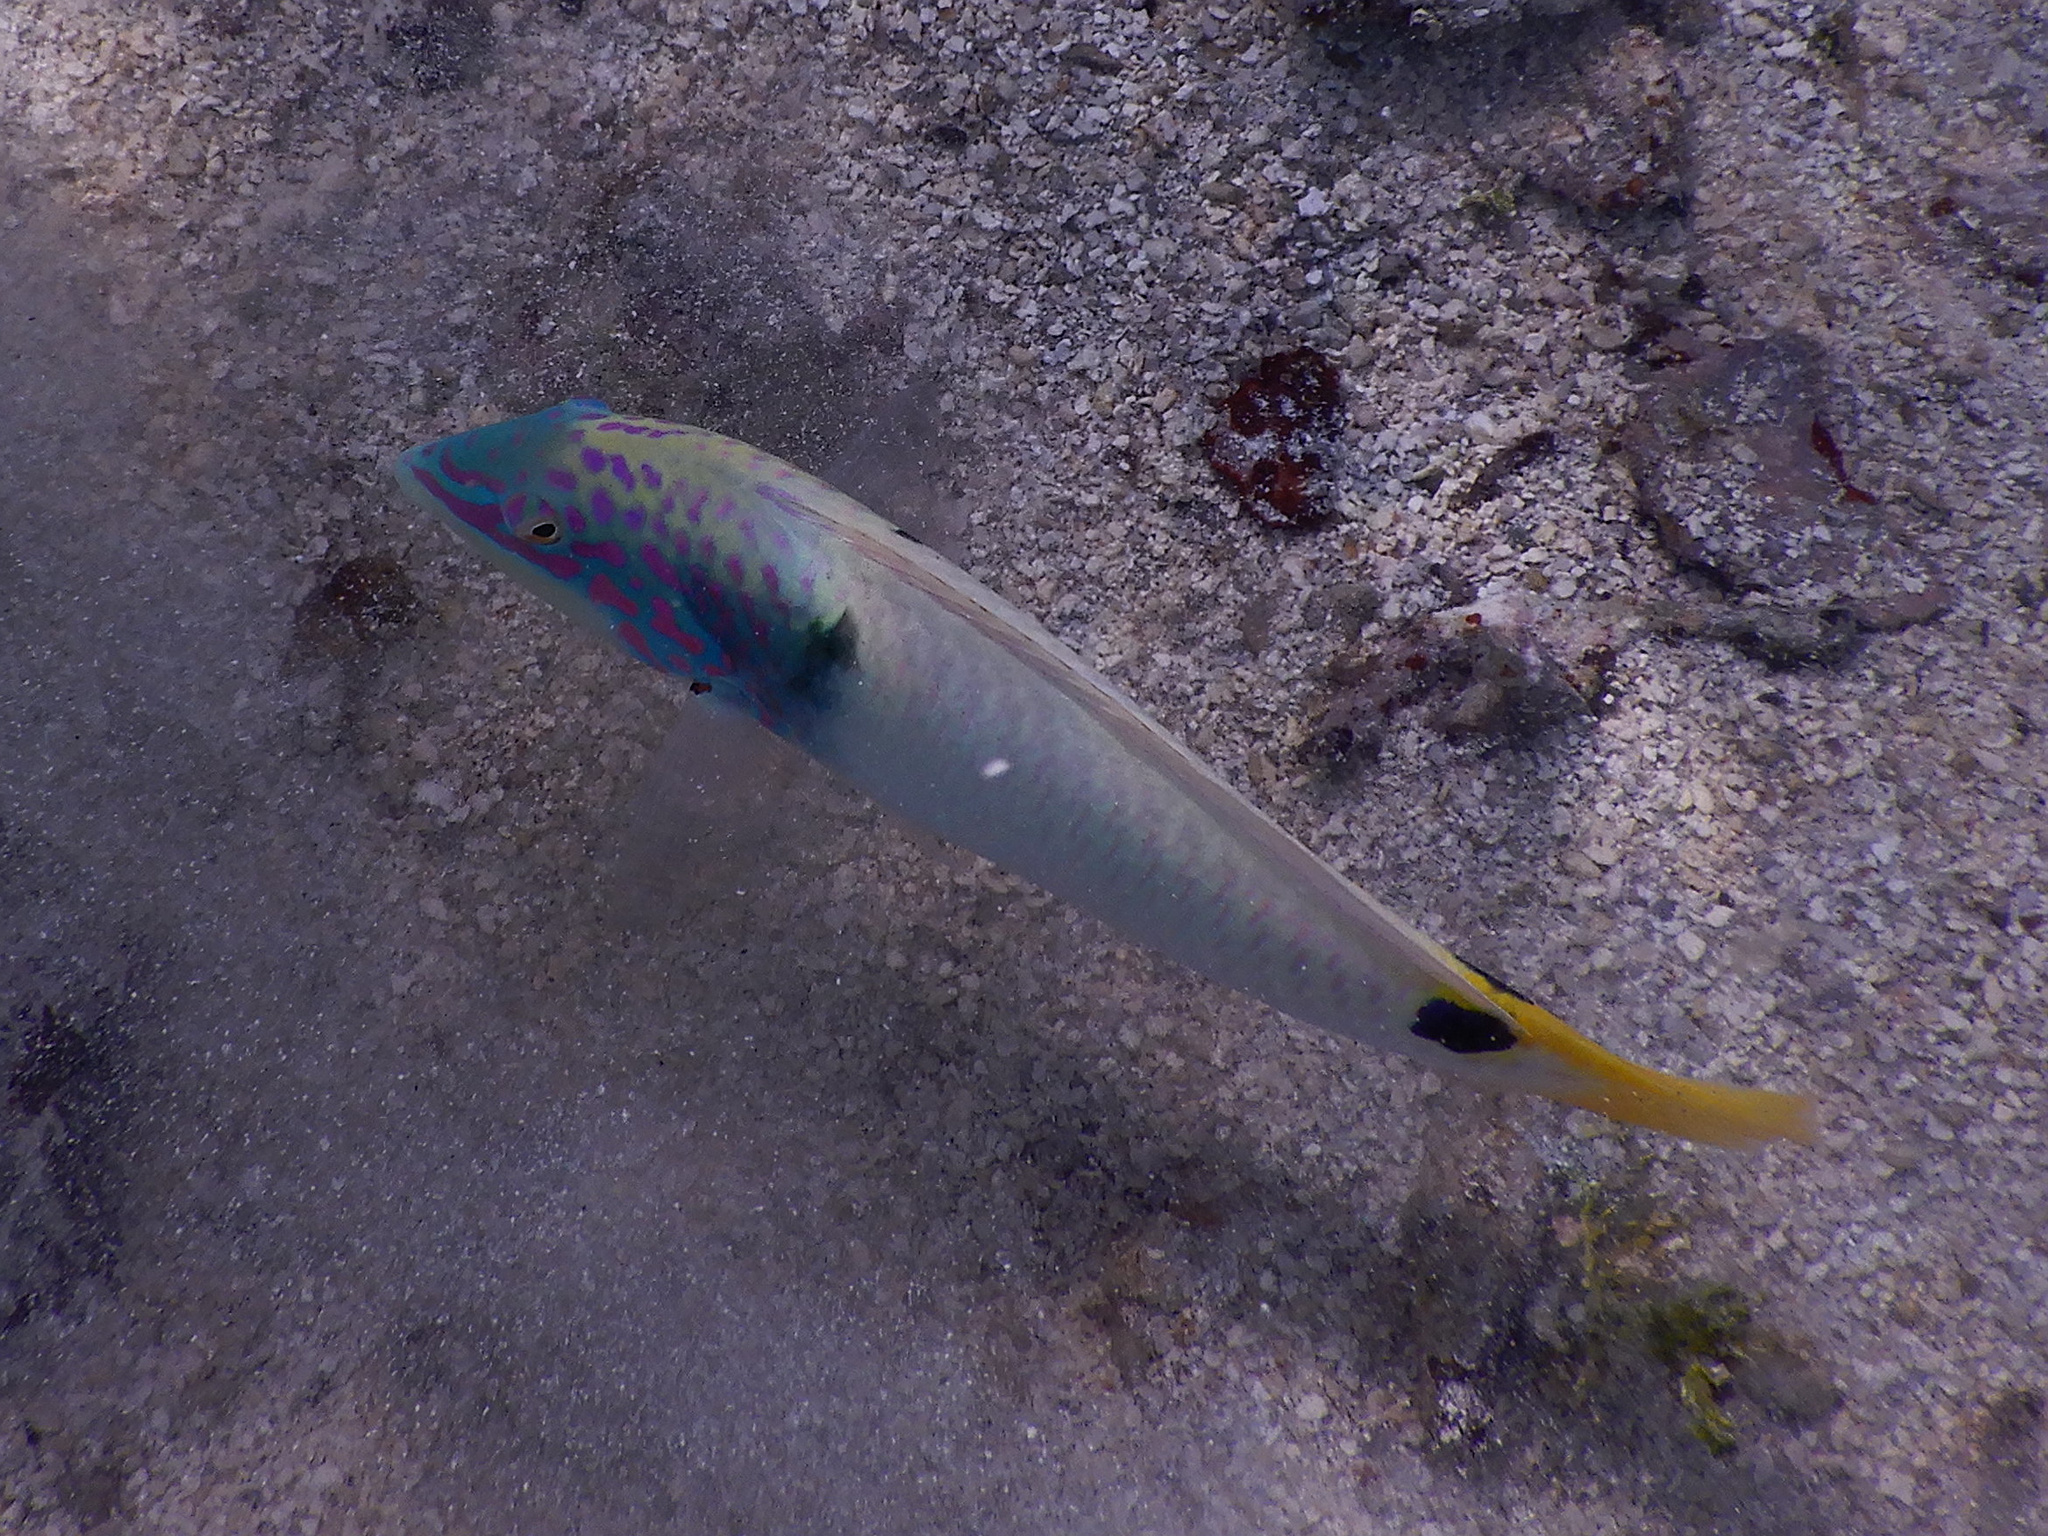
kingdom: Animalia
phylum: Chordata
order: Perciformes
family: Labridae
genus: Halichoeres
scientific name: Halichoeres trimaculatus
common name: Three-spot wrasse
